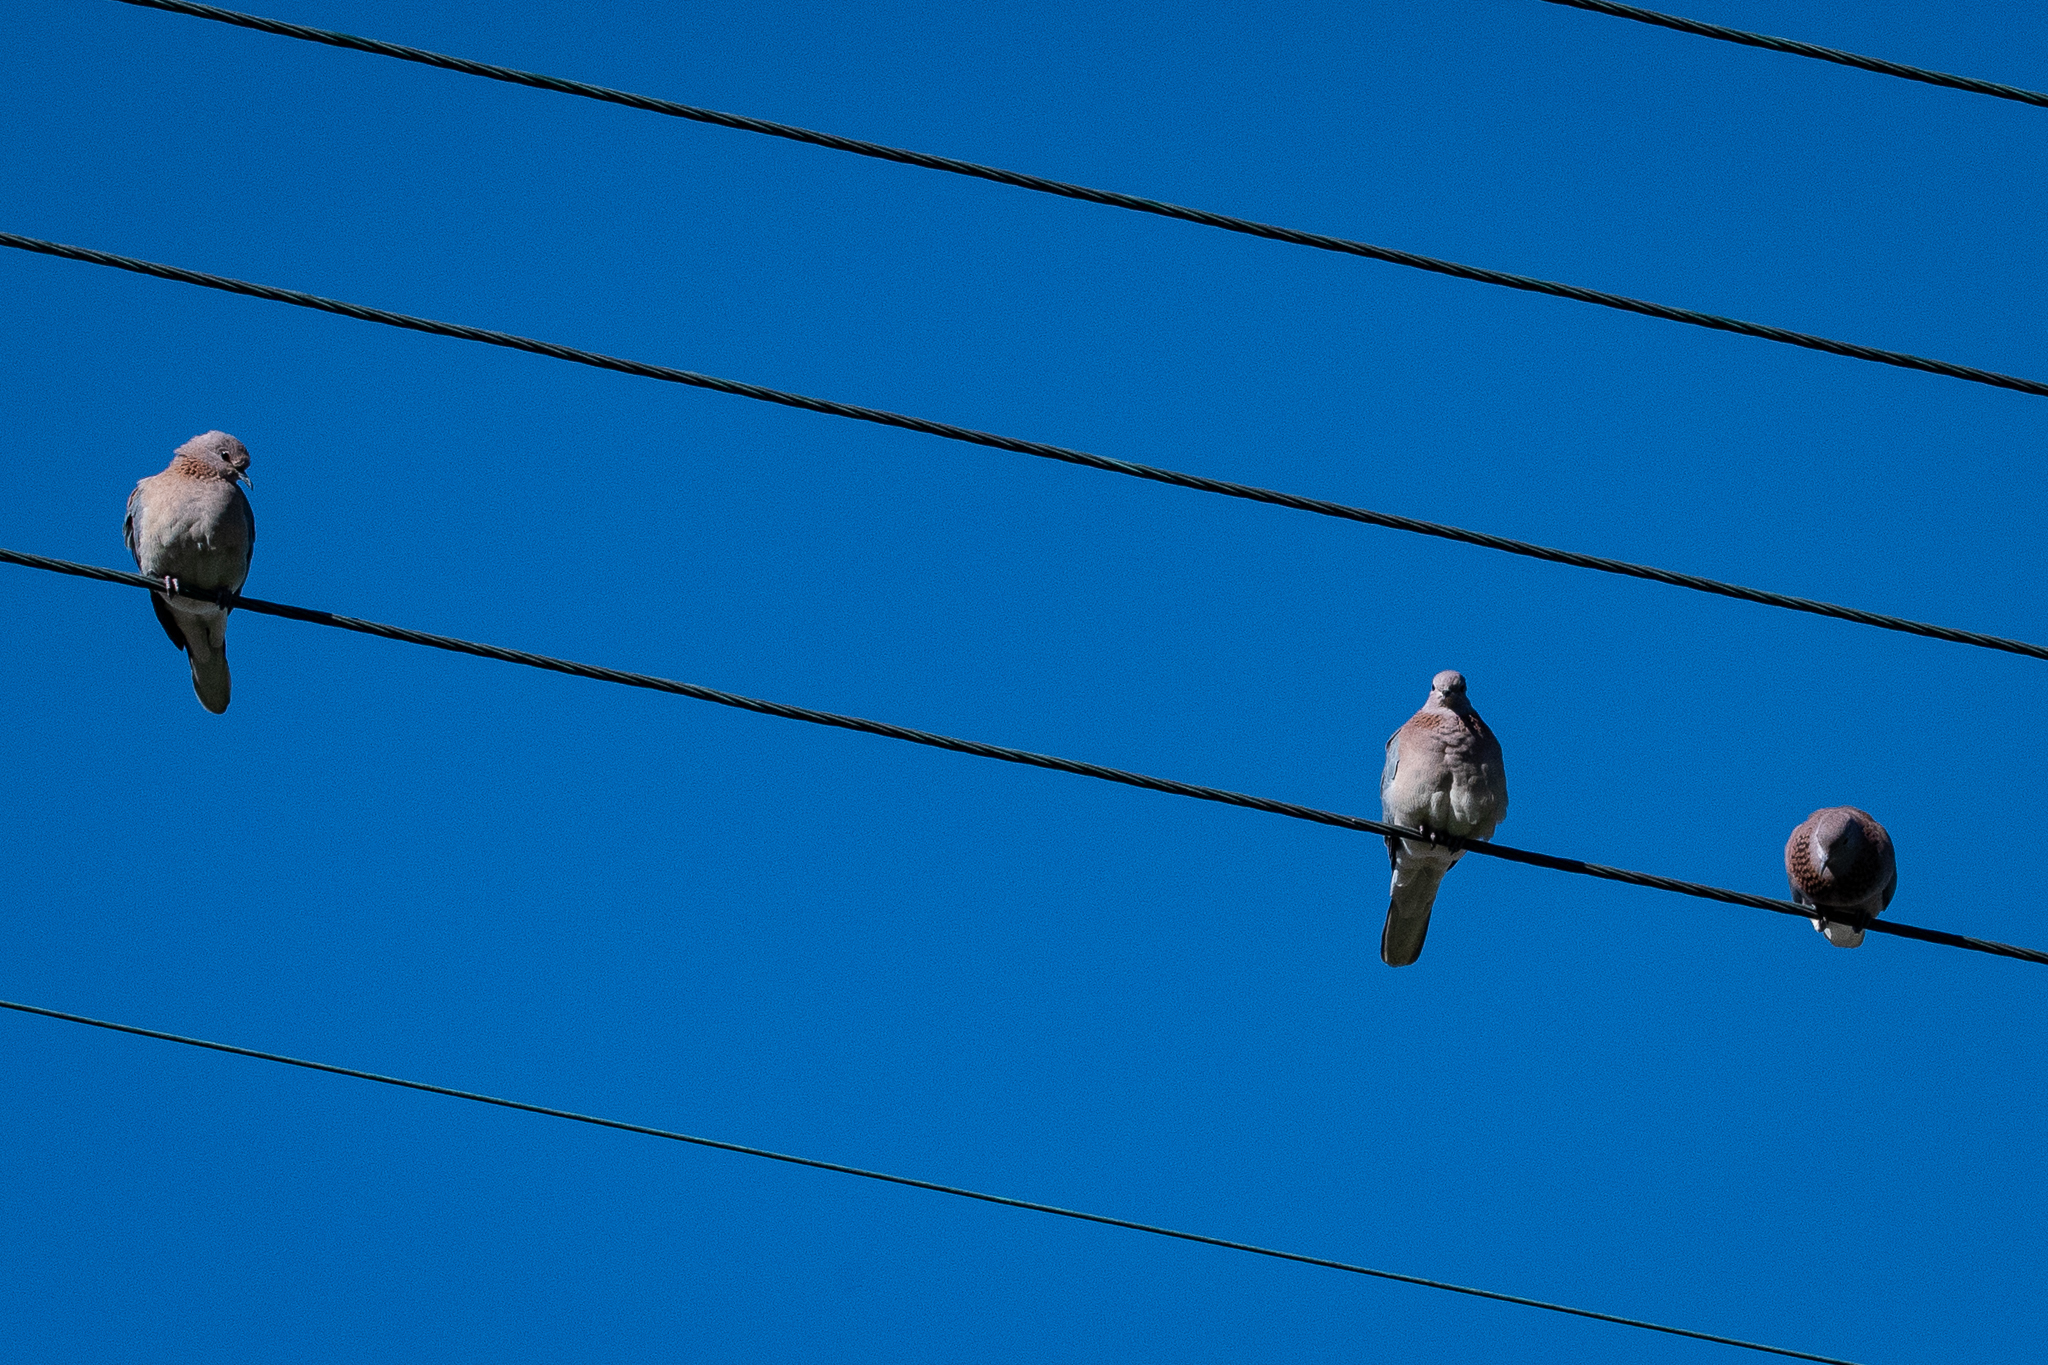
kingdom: Animalia
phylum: Chordata
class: Aves
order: Columbiformes
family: Columbidae
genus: Spilopelia
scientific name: Spilopelia senegalensis
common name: Laughing dove
